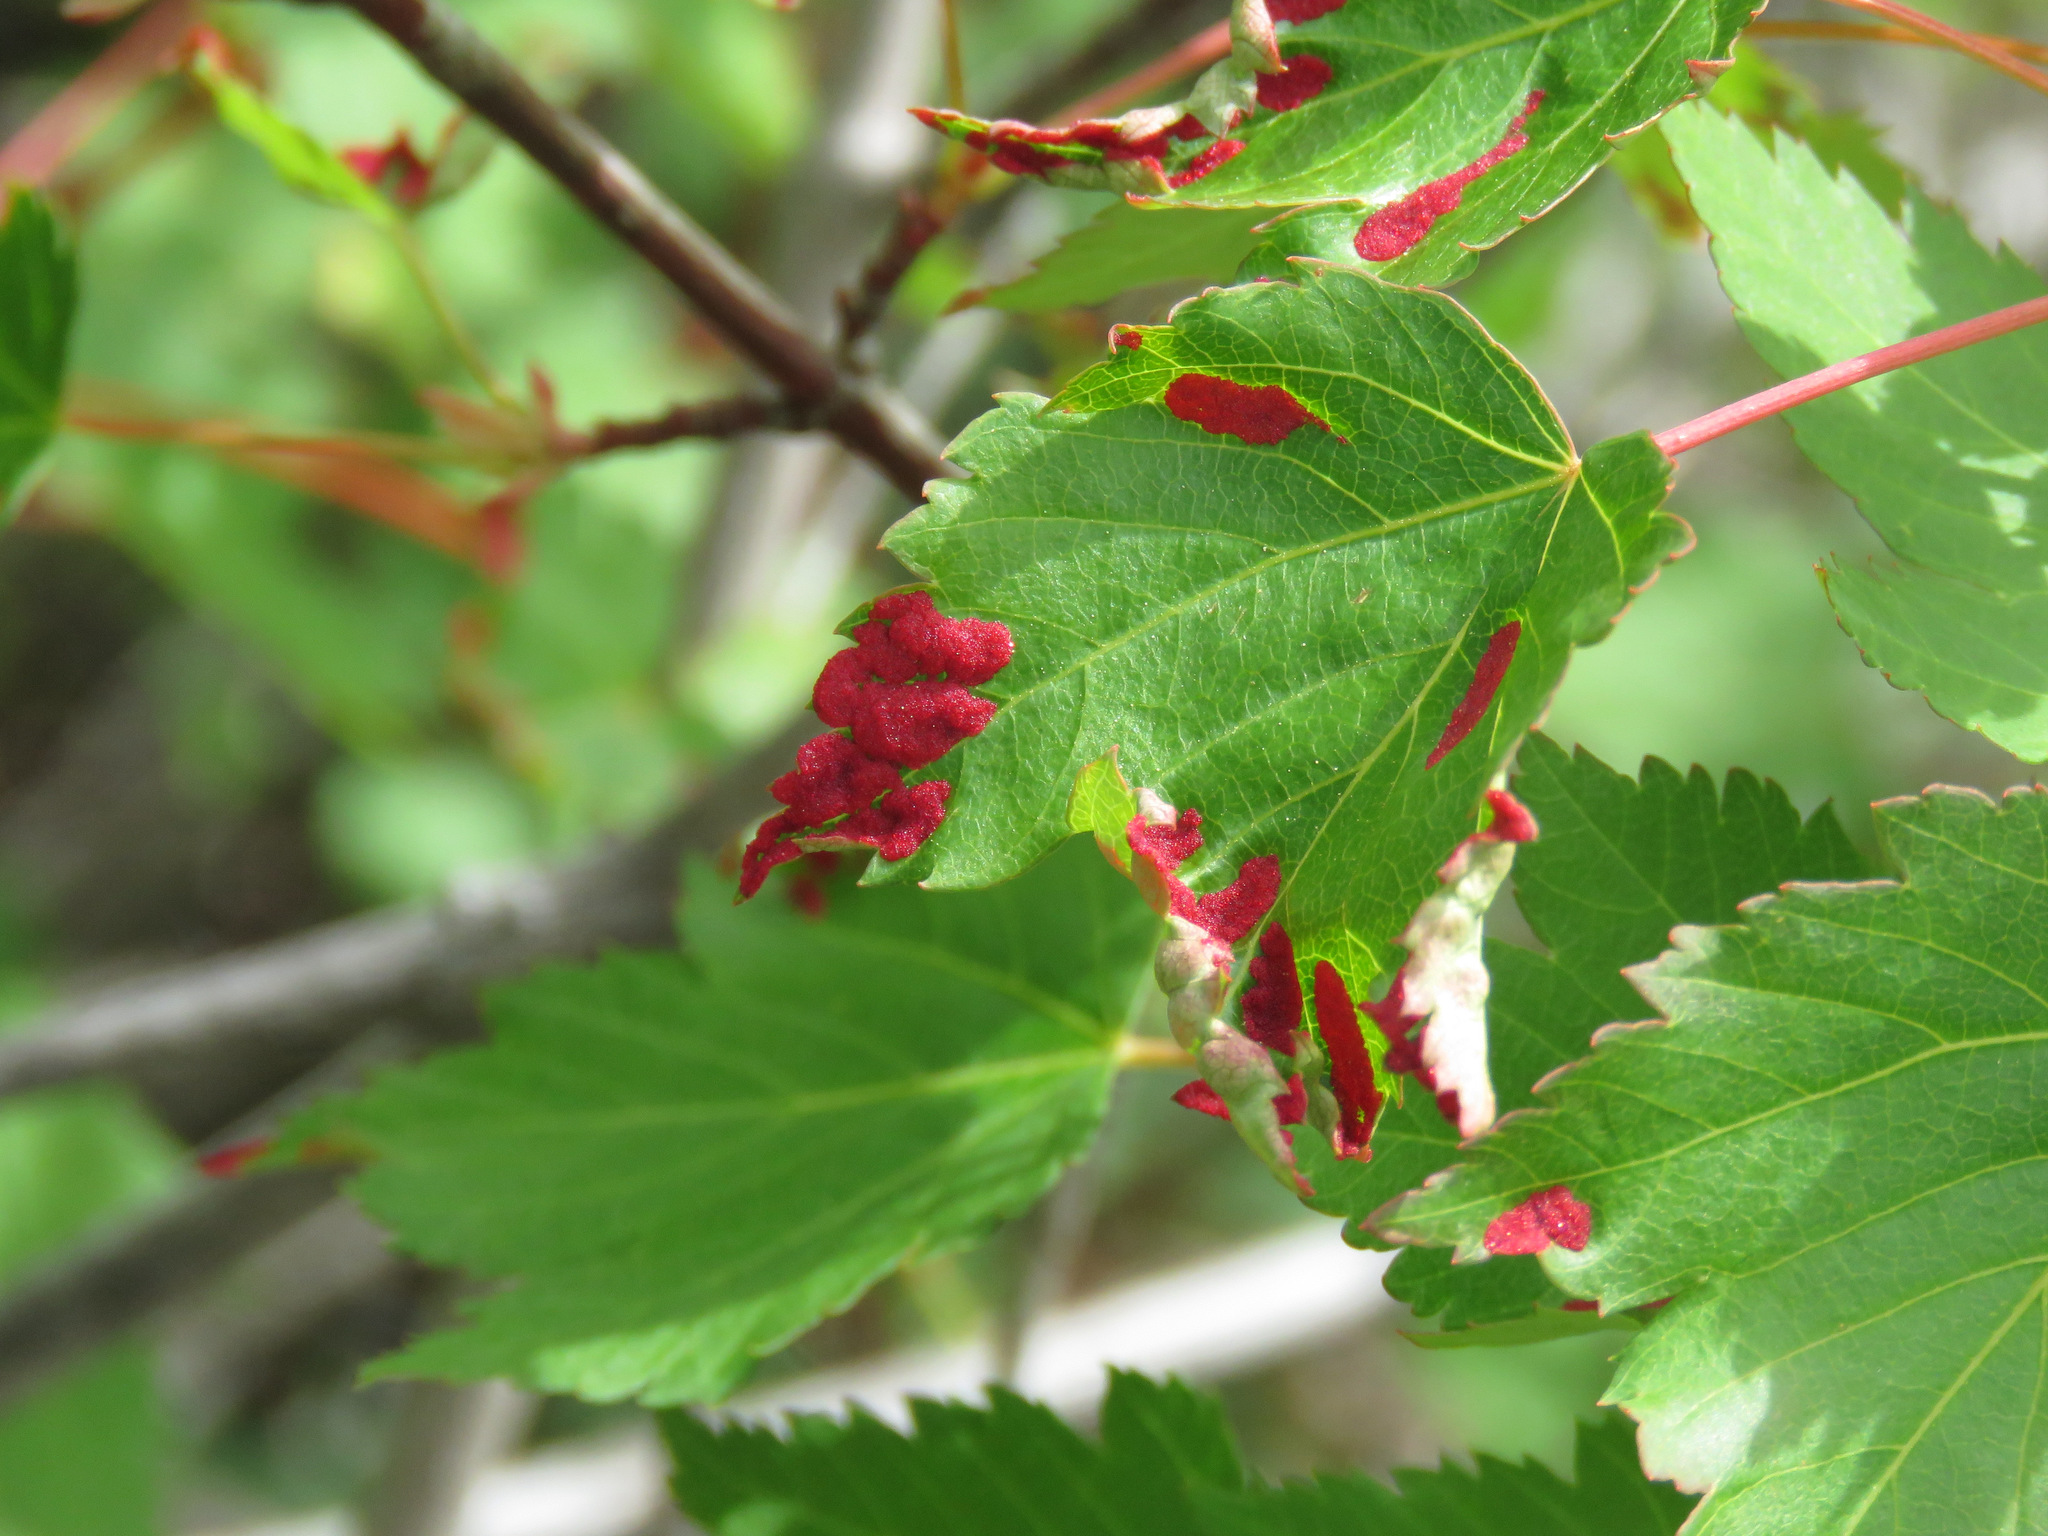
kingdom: Animalia
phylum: Arthropoda
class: Arachnida
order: Trombidiformes
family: Eriophyidae
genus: Aceria
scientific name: Aceria
